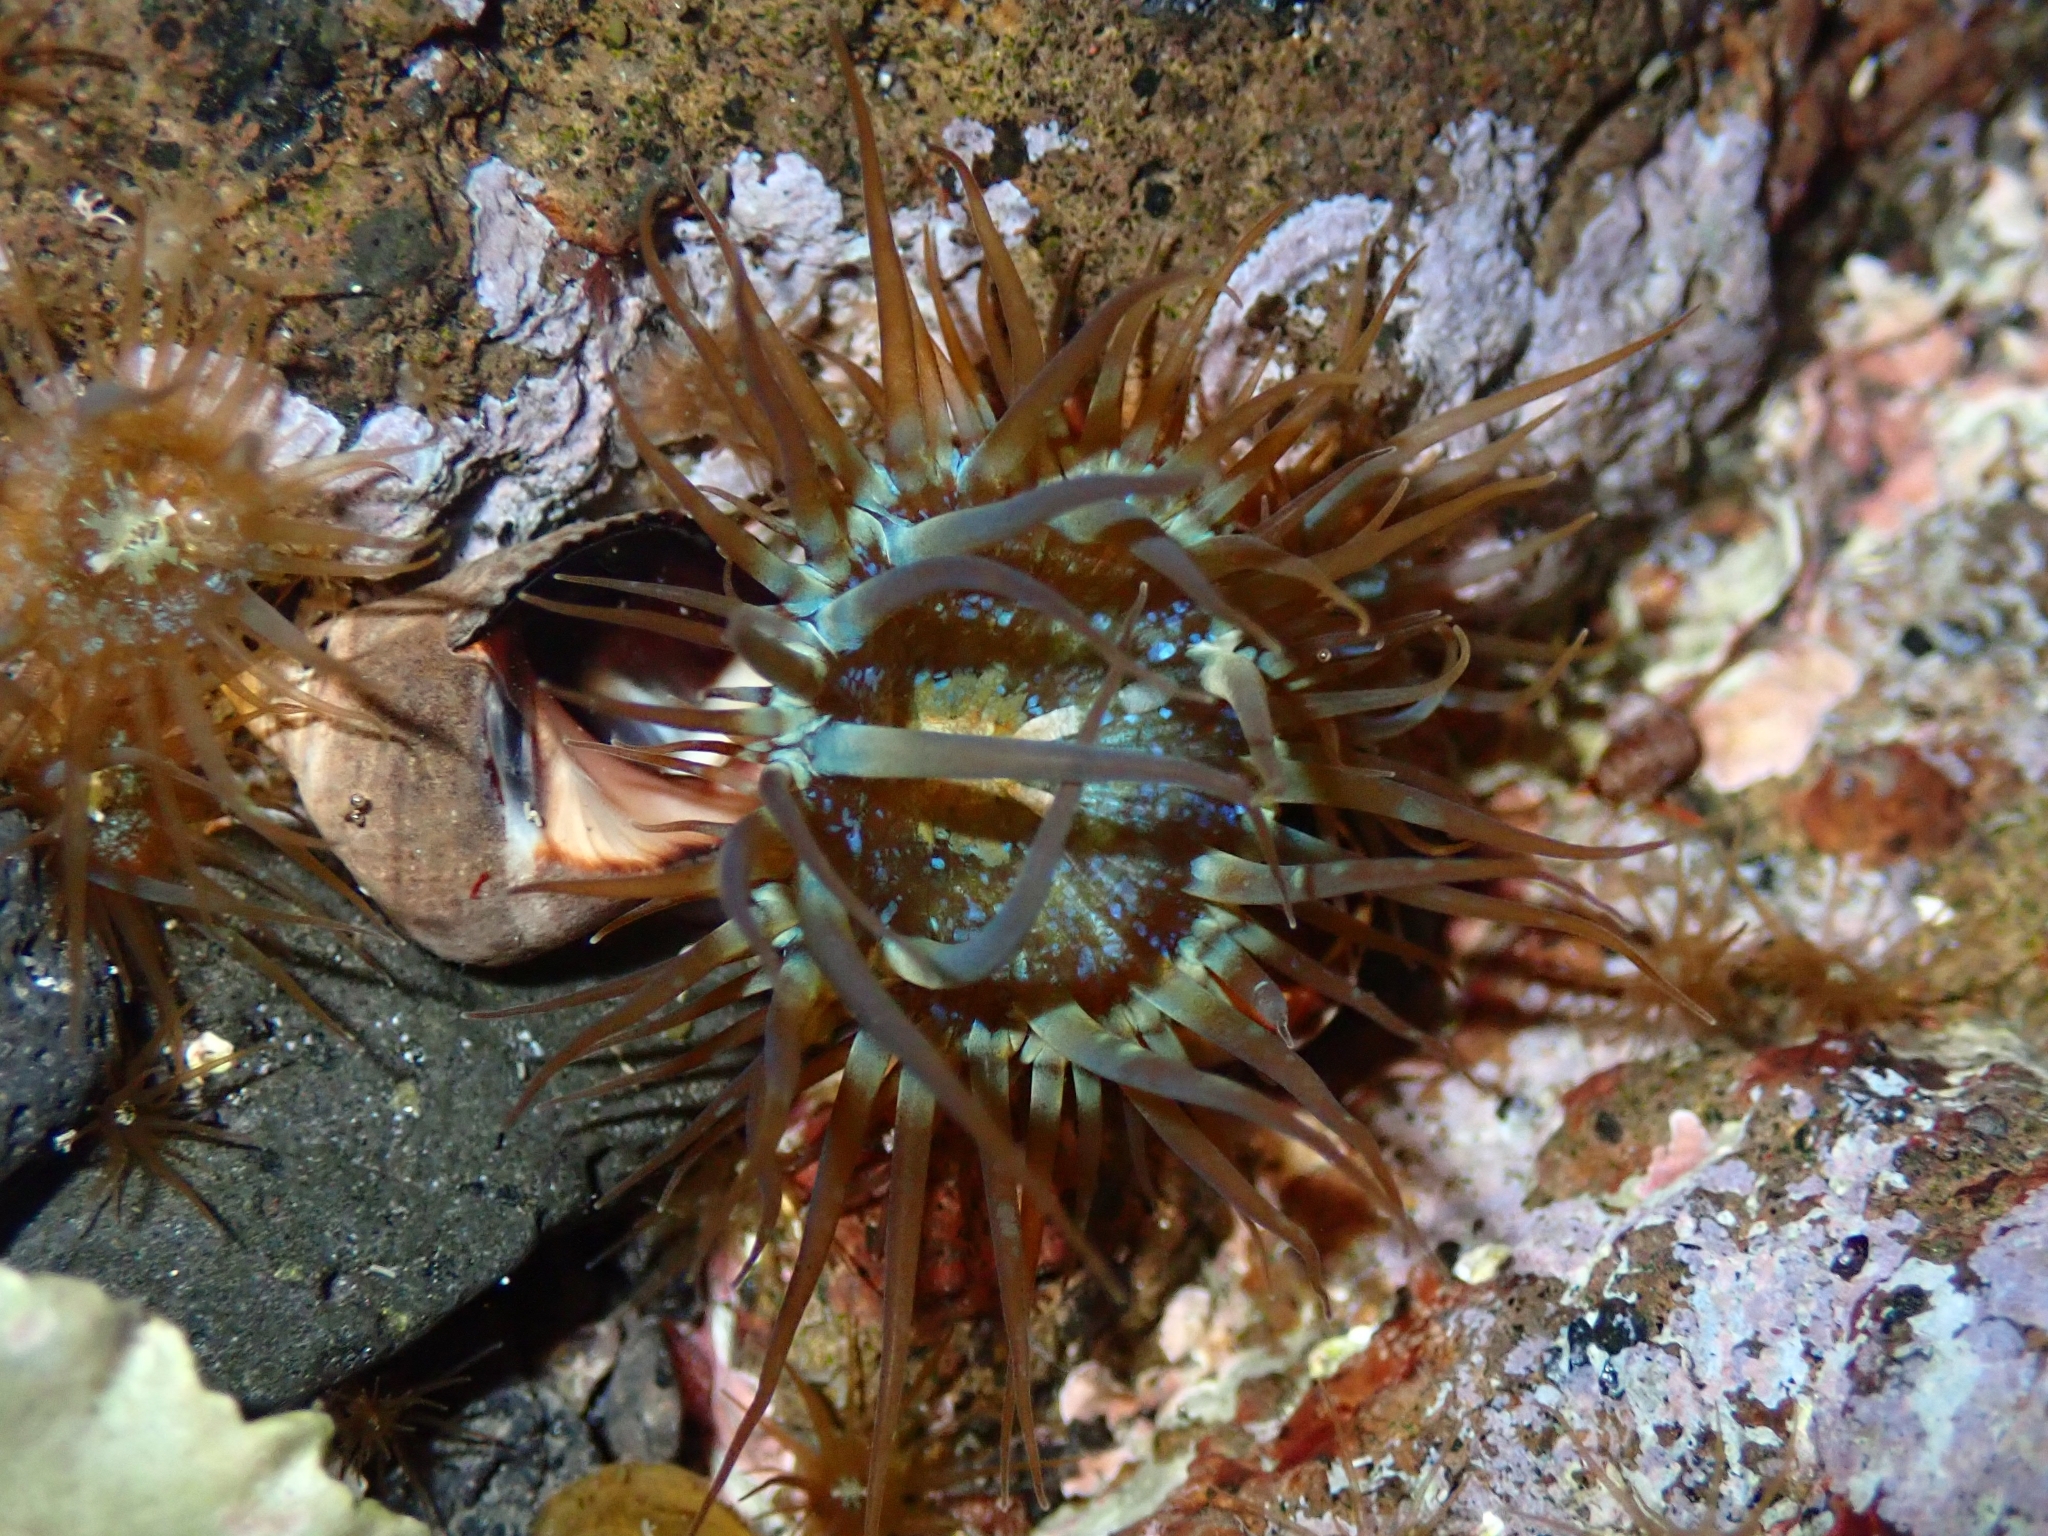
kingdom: Animalia
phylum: Cnidaria
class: Anthozoa
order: Actiniaria
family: Aiptasiidae
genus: Exaiptasia
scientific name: Exaiptasia diaphana
